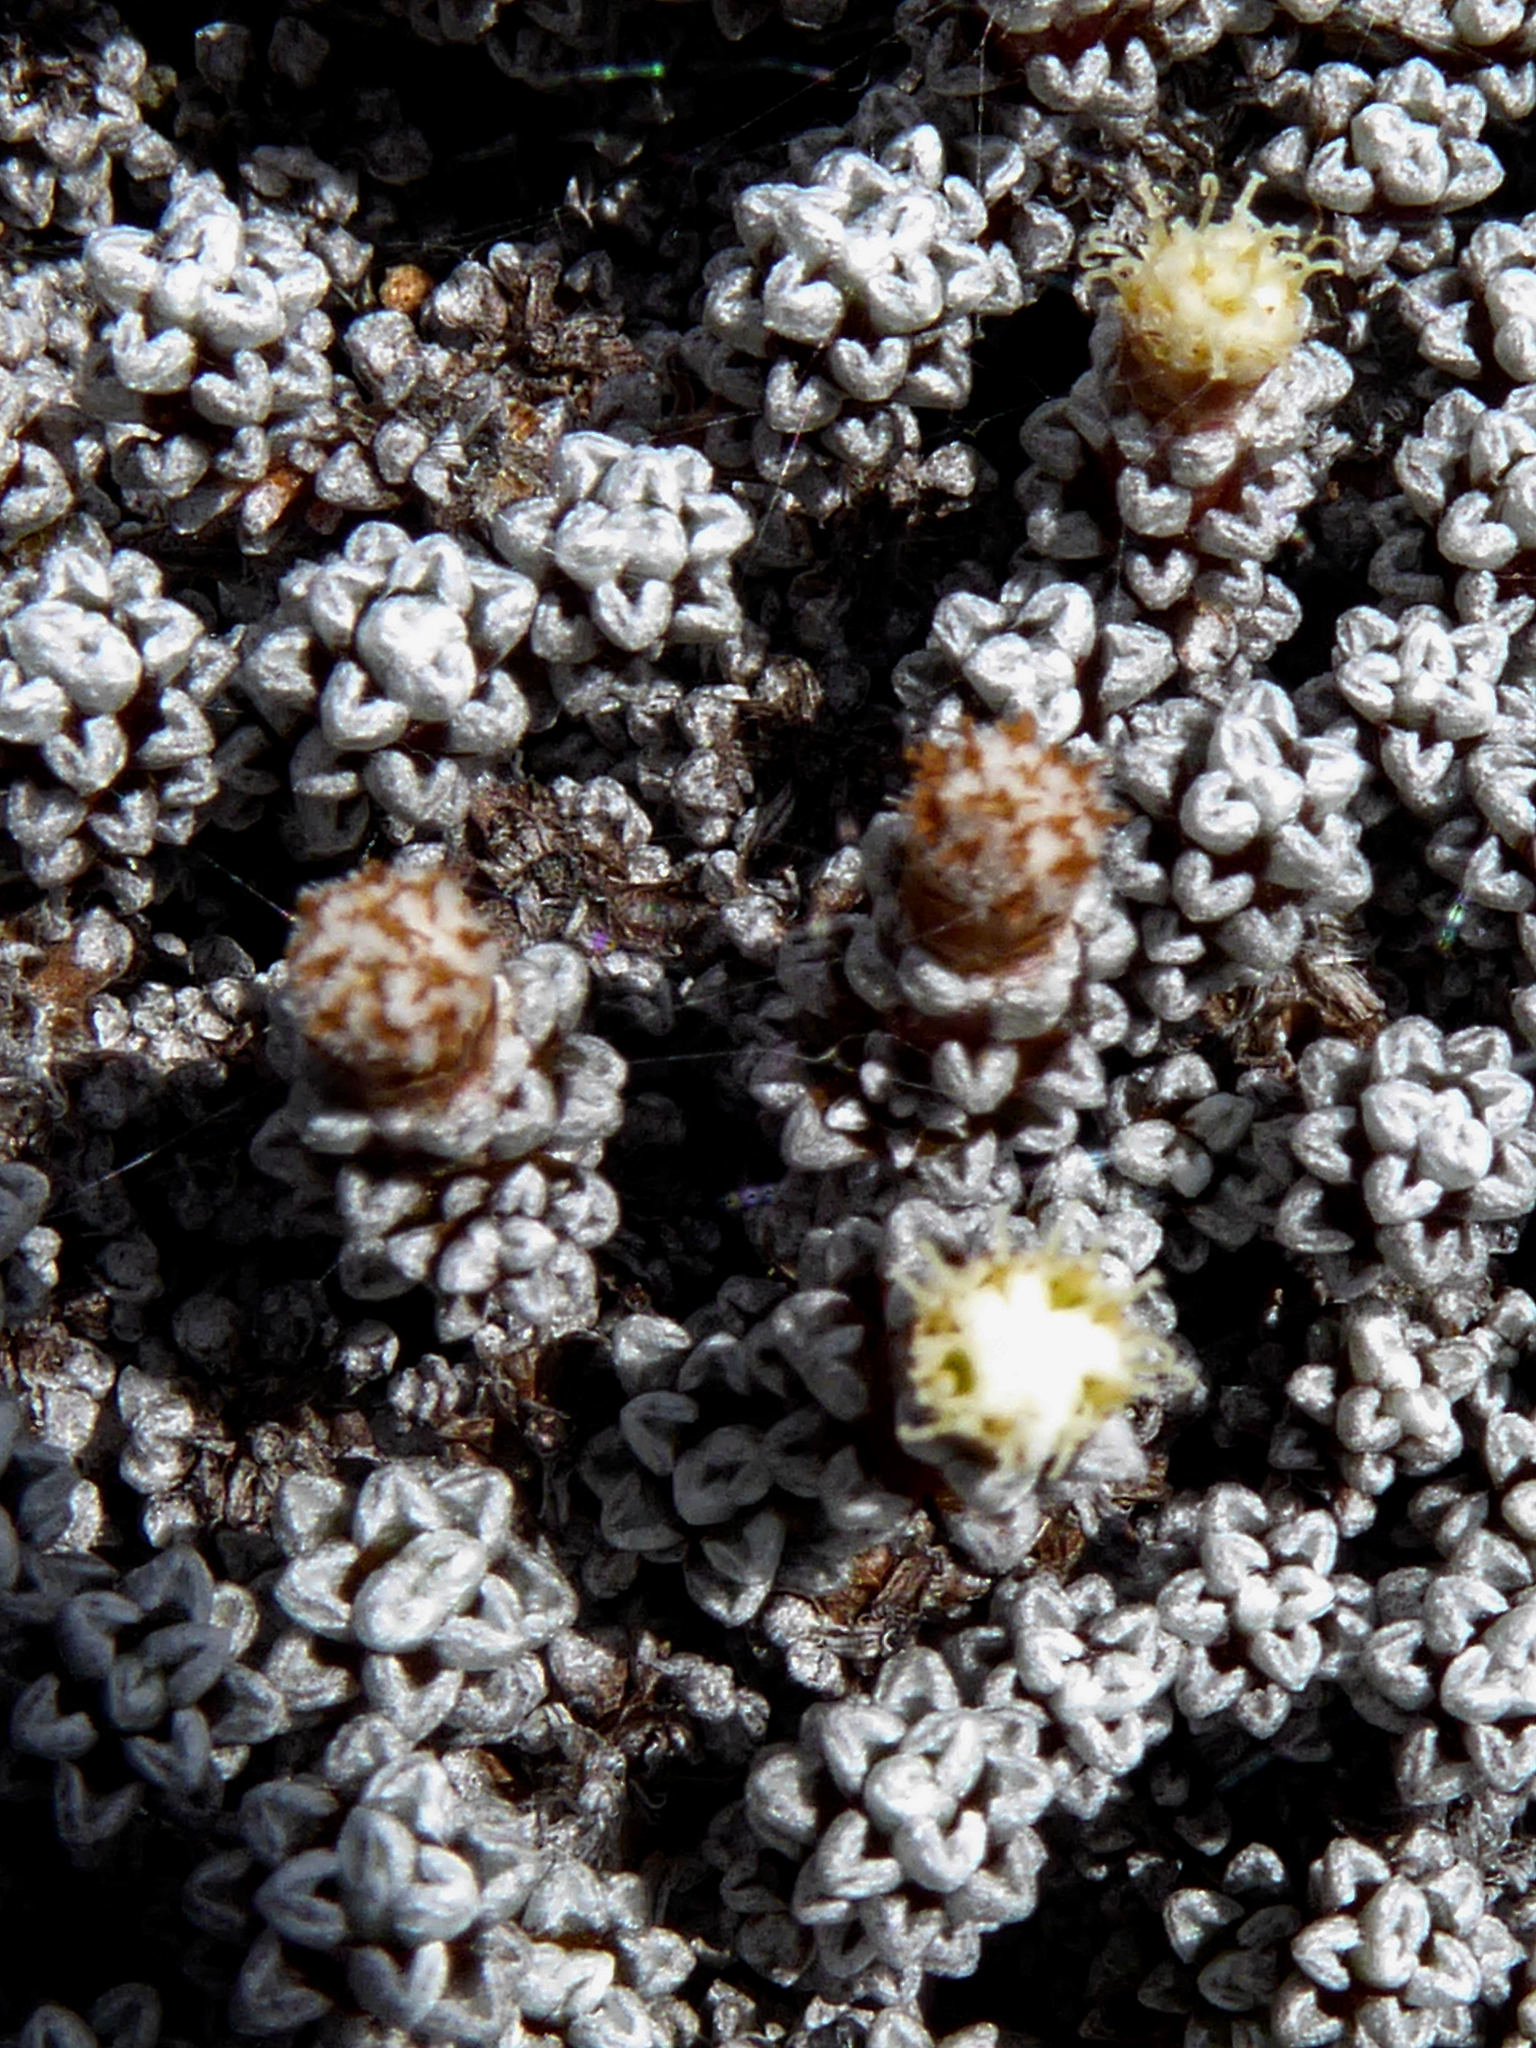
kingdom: Plantae
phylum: Tracheophyta
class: Magnoliopsida
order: Asterales
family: Asteraceae
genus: Raoulia
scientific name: Raoulia albosericea
